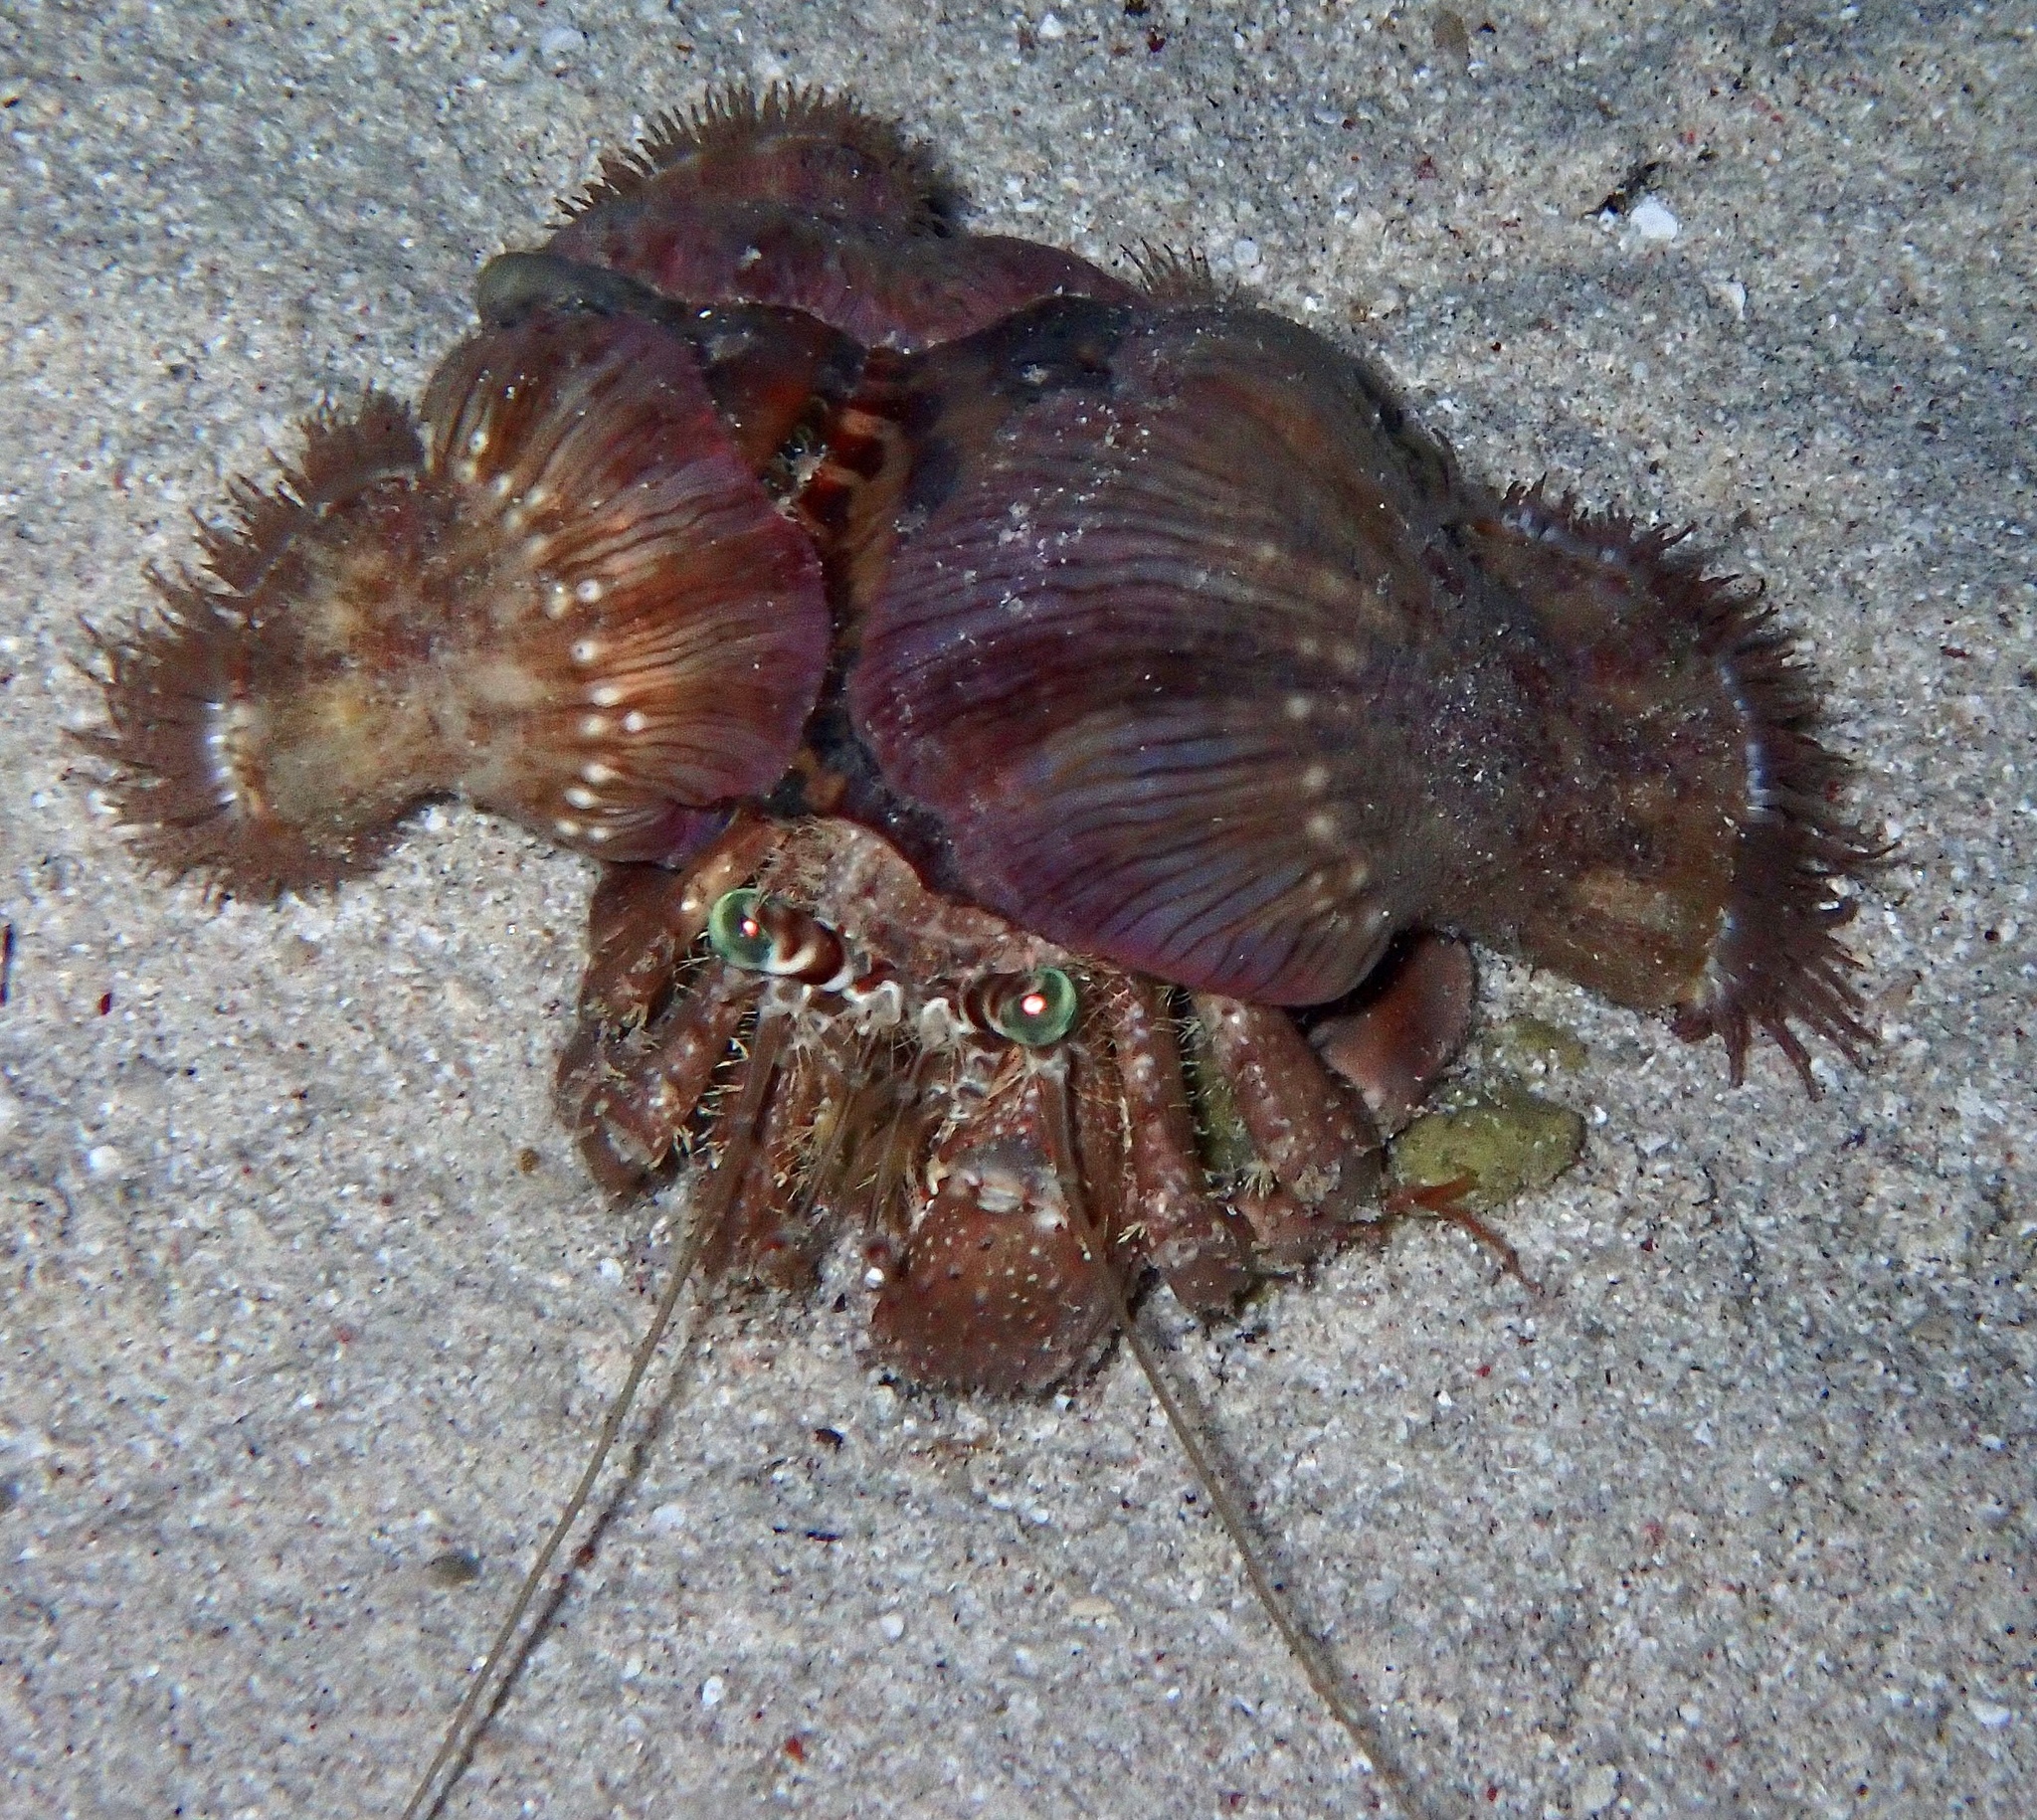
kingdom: Animalia
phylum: Arthropoda
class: Malacostraca
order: Decapoda
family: Diogenidae
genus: Dardanus
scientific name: Dardanus tinctor
